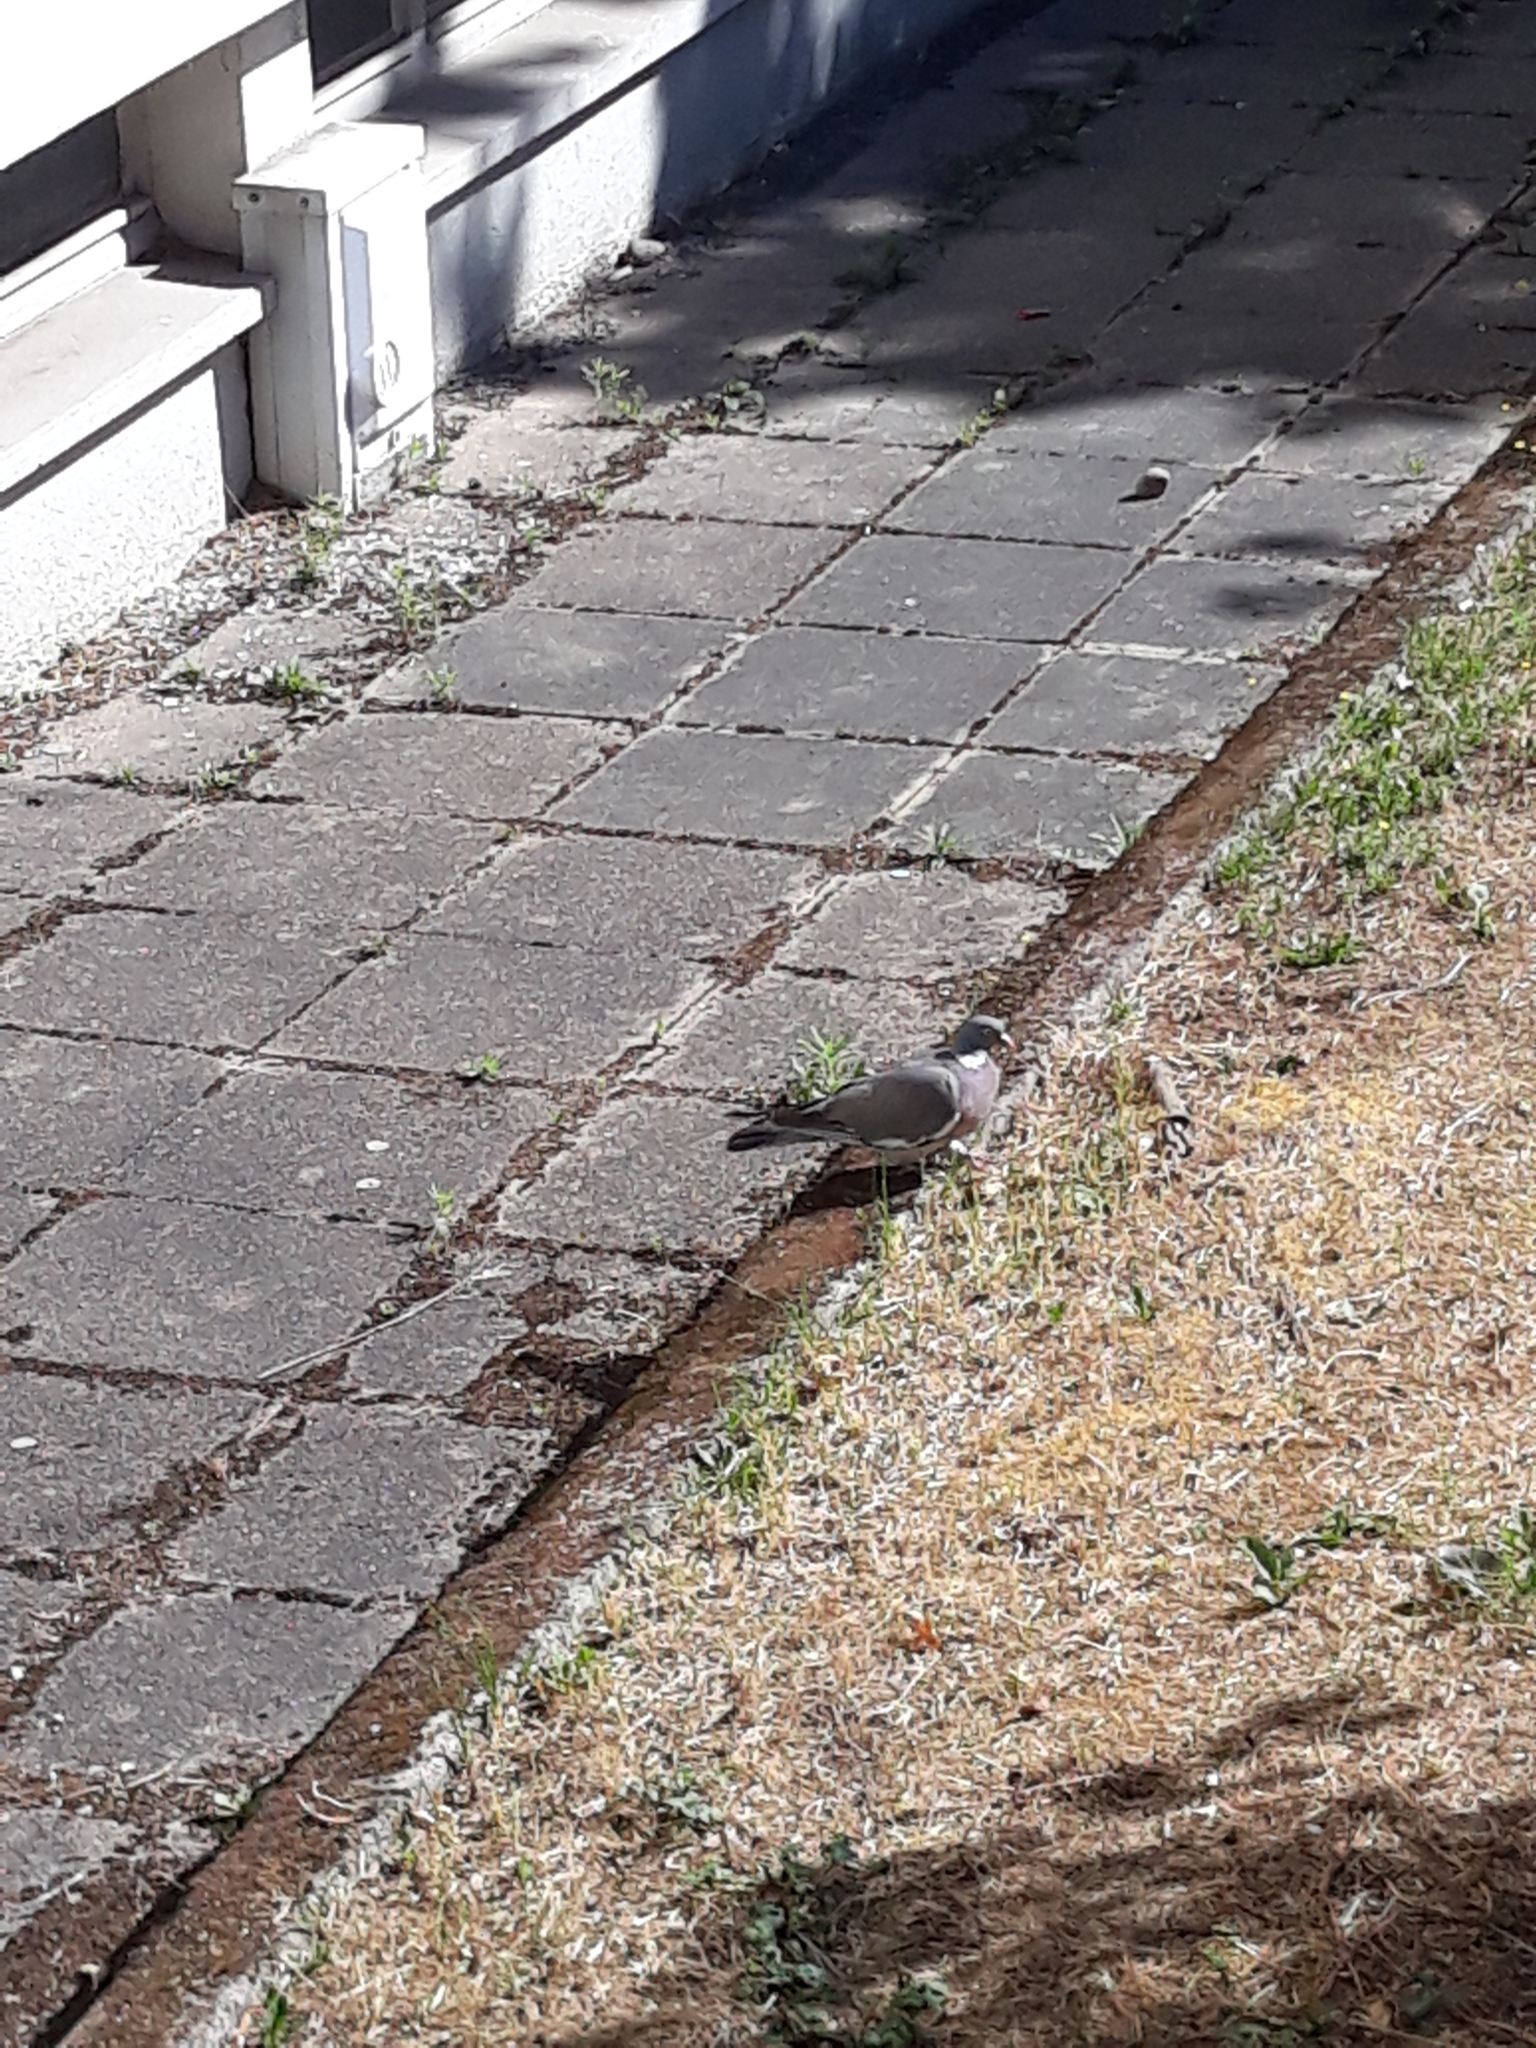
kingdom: Animalia
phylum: Chordata
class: Aves
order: Columbiformes
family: Columbidae
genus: Columba
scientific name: Columba palumbus
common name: Common wood pigeon
